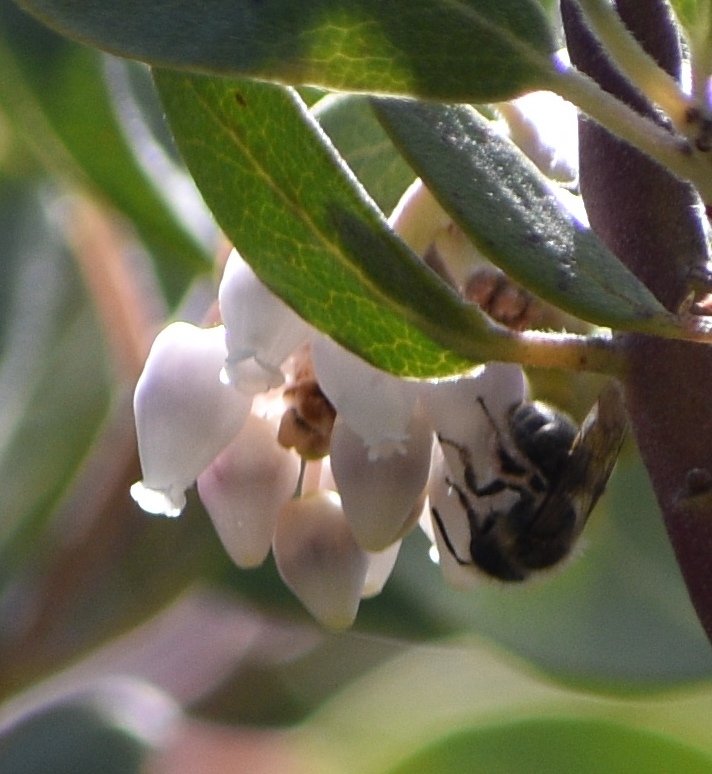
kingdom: Animalia
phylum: Arthropoda
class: Insecta
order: Hymenoptera
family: Andrenidae
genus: Andrena
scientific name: Andrena
